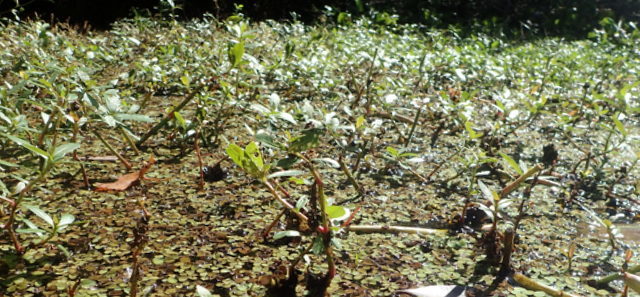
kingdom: Plantae
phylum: Tracheophyta
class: Magnoliopsida
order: Caryophyllales
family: Amaranthaceae
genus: Alternanthera
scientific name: Alternanthera philoxeroides
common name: Alligatorweed
